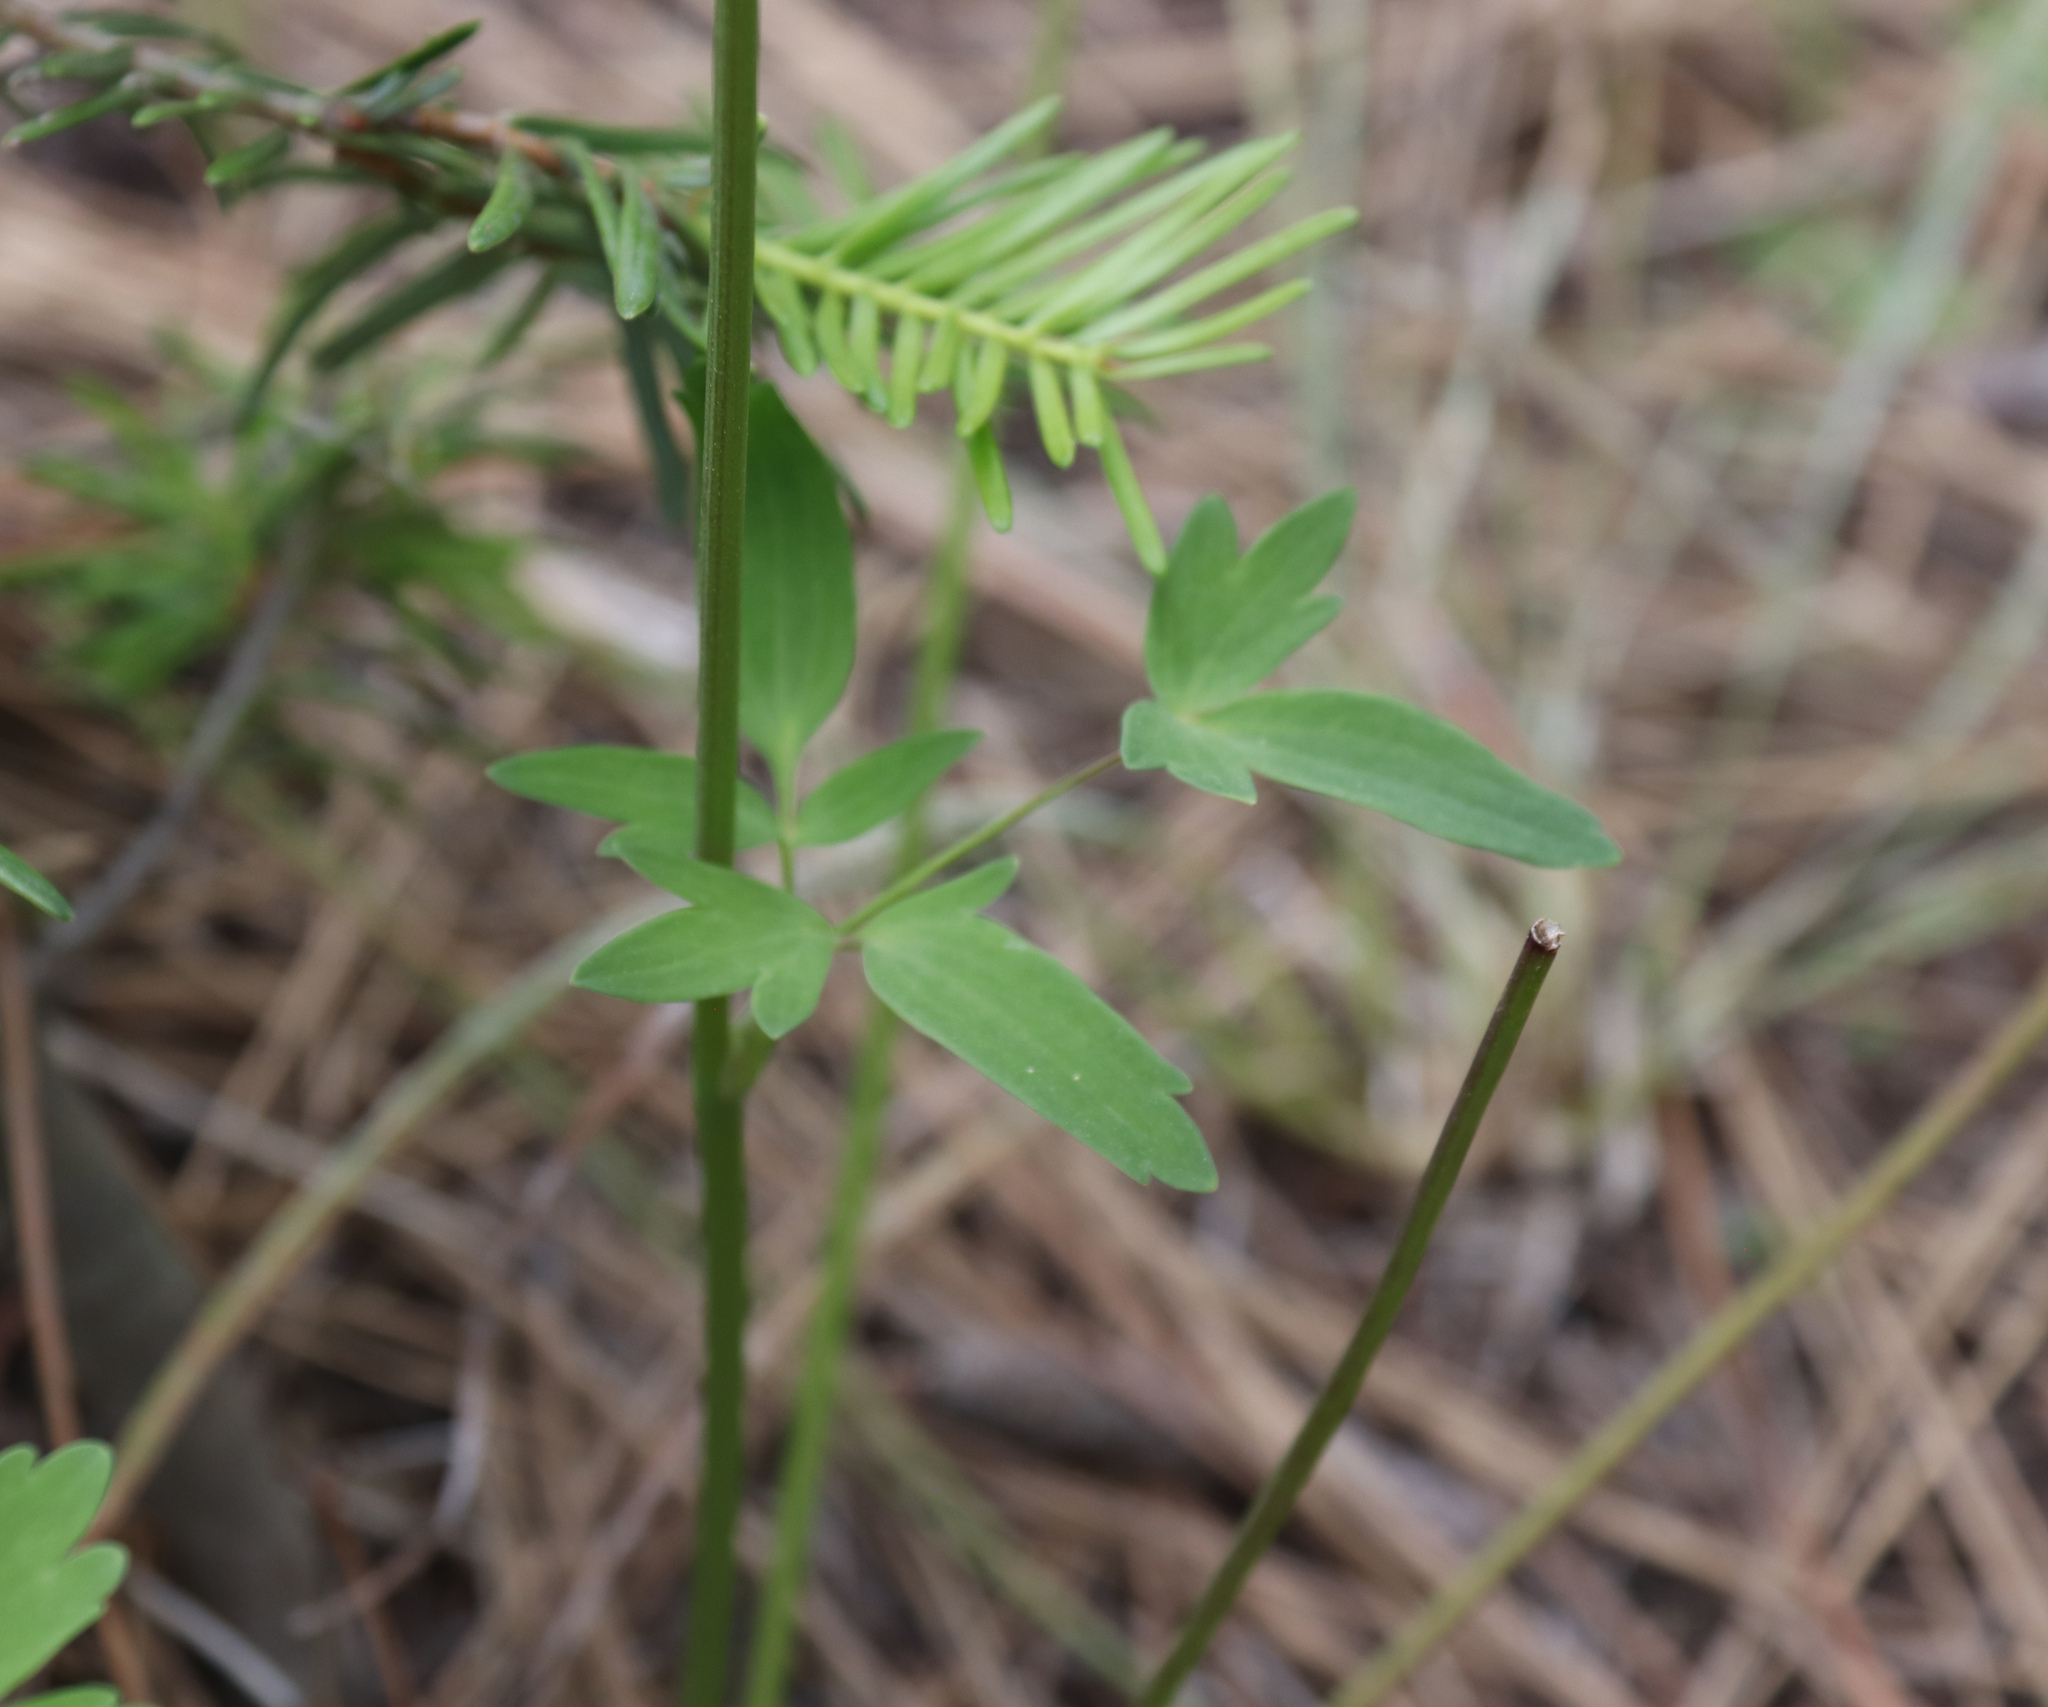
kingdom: Plantae
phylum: Tracheophyta
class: Magnoliopsida
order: Ranunculales
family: Ranunculaceae
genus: Aquilegia
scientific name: Aquilegia formosa
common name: Sitka columbine
